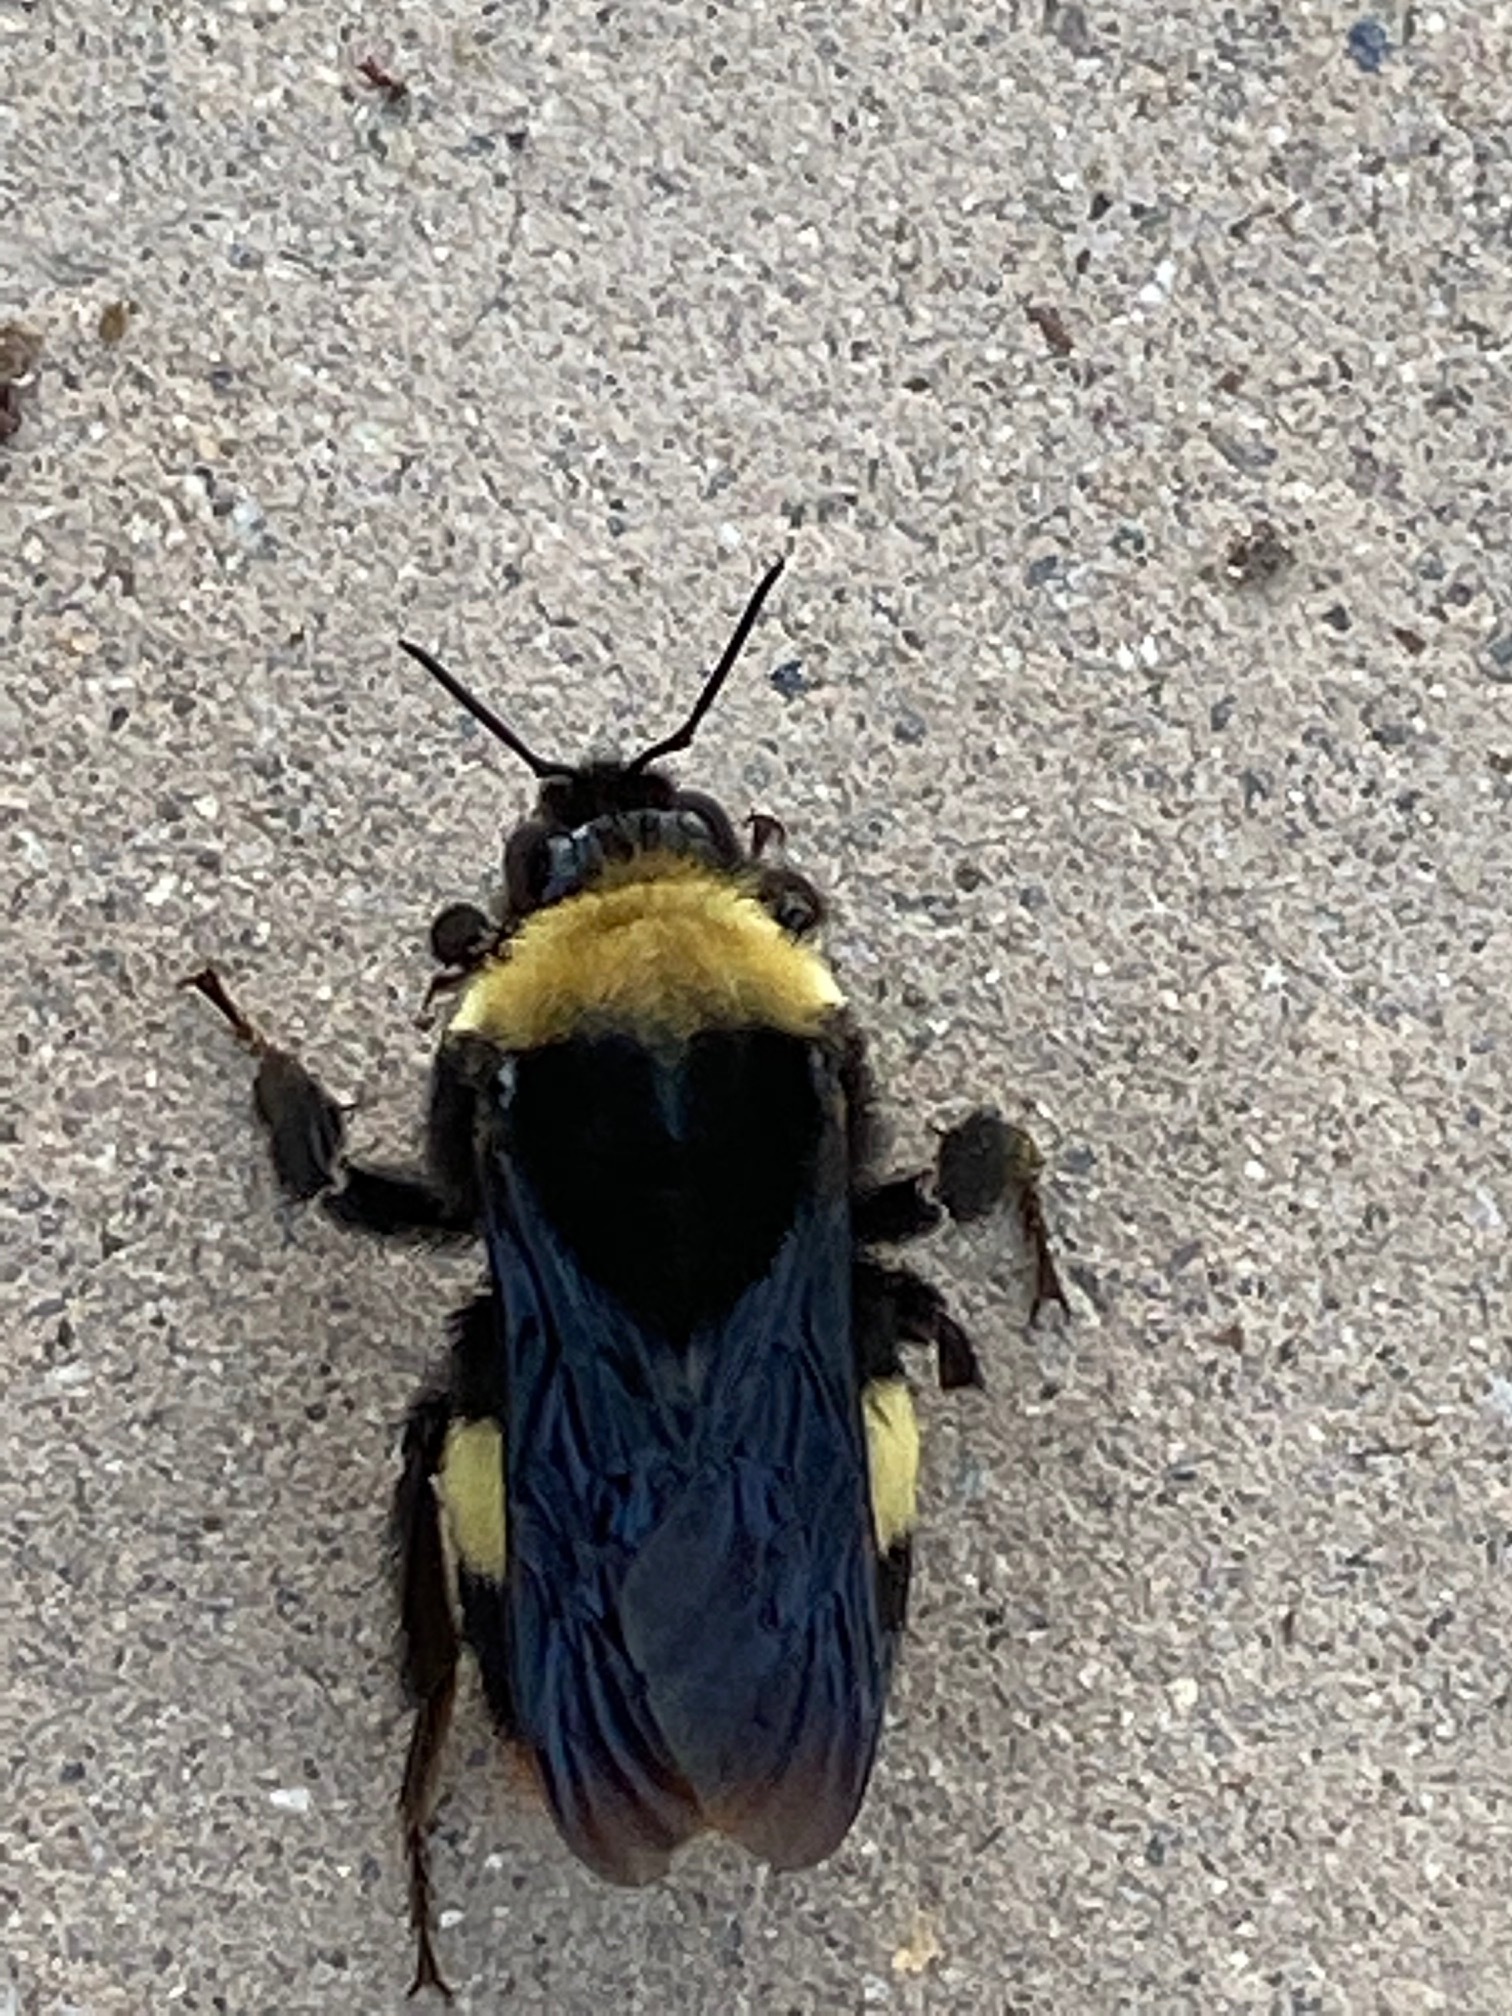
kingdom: Animalia
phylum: Arthropoda
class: Insecta
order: Hymenoptera
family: Apidae
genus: Bombus
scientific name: Bombus crotchii
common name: Crotch bumble bee
